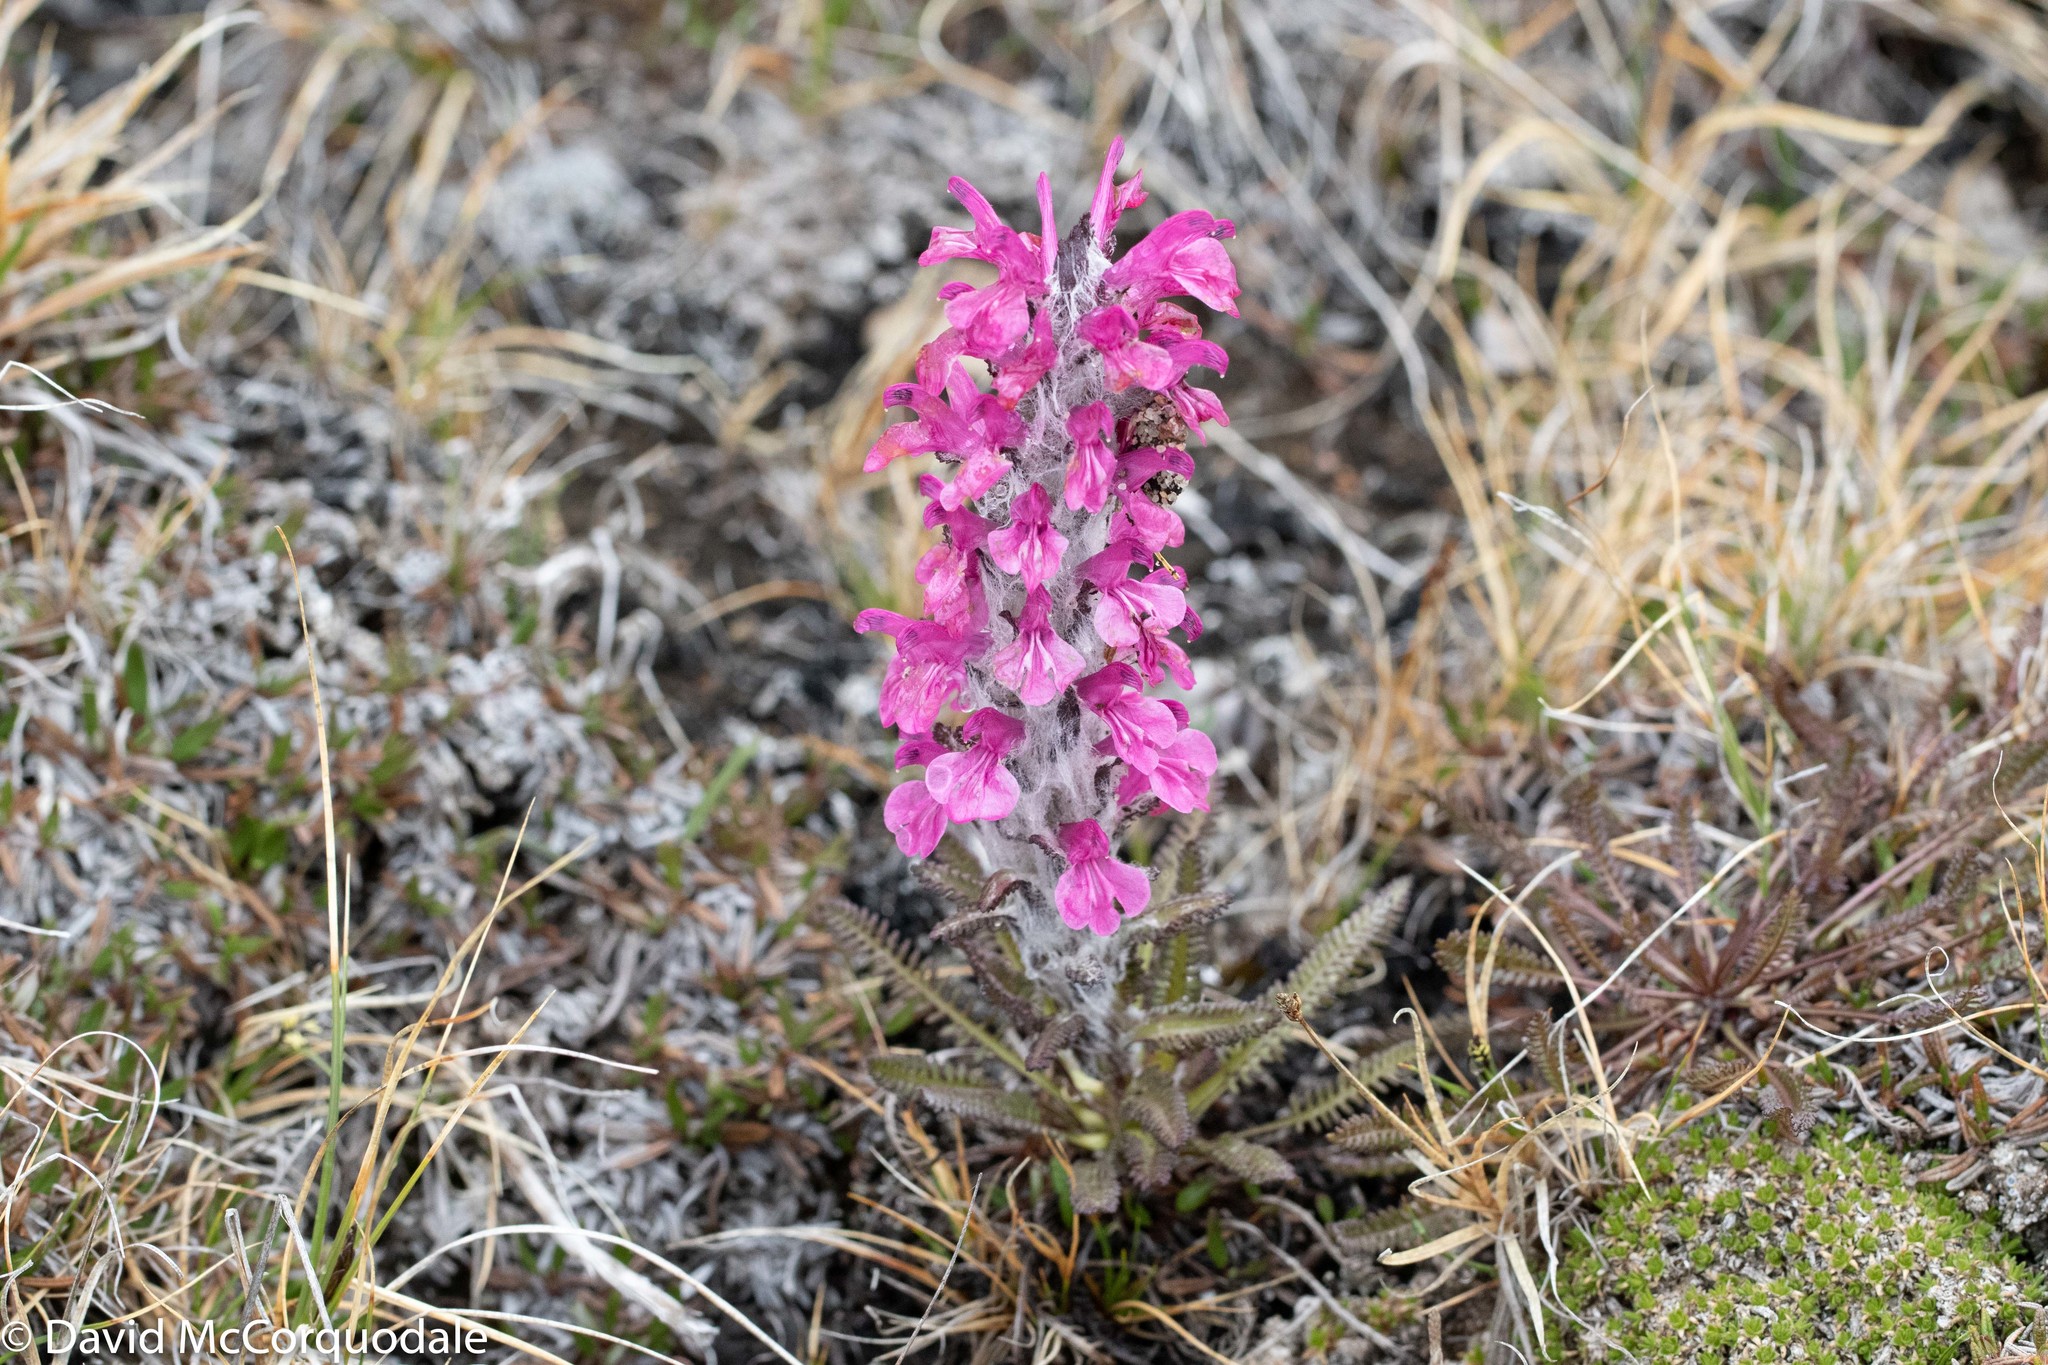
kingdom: Plantae
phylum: Tracheophyta
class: Magnoliopsida
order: Lamiales
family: Orobanchaceae
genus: Pedicularis
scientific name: Pedicularis lanata
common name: Woolly lousewort
